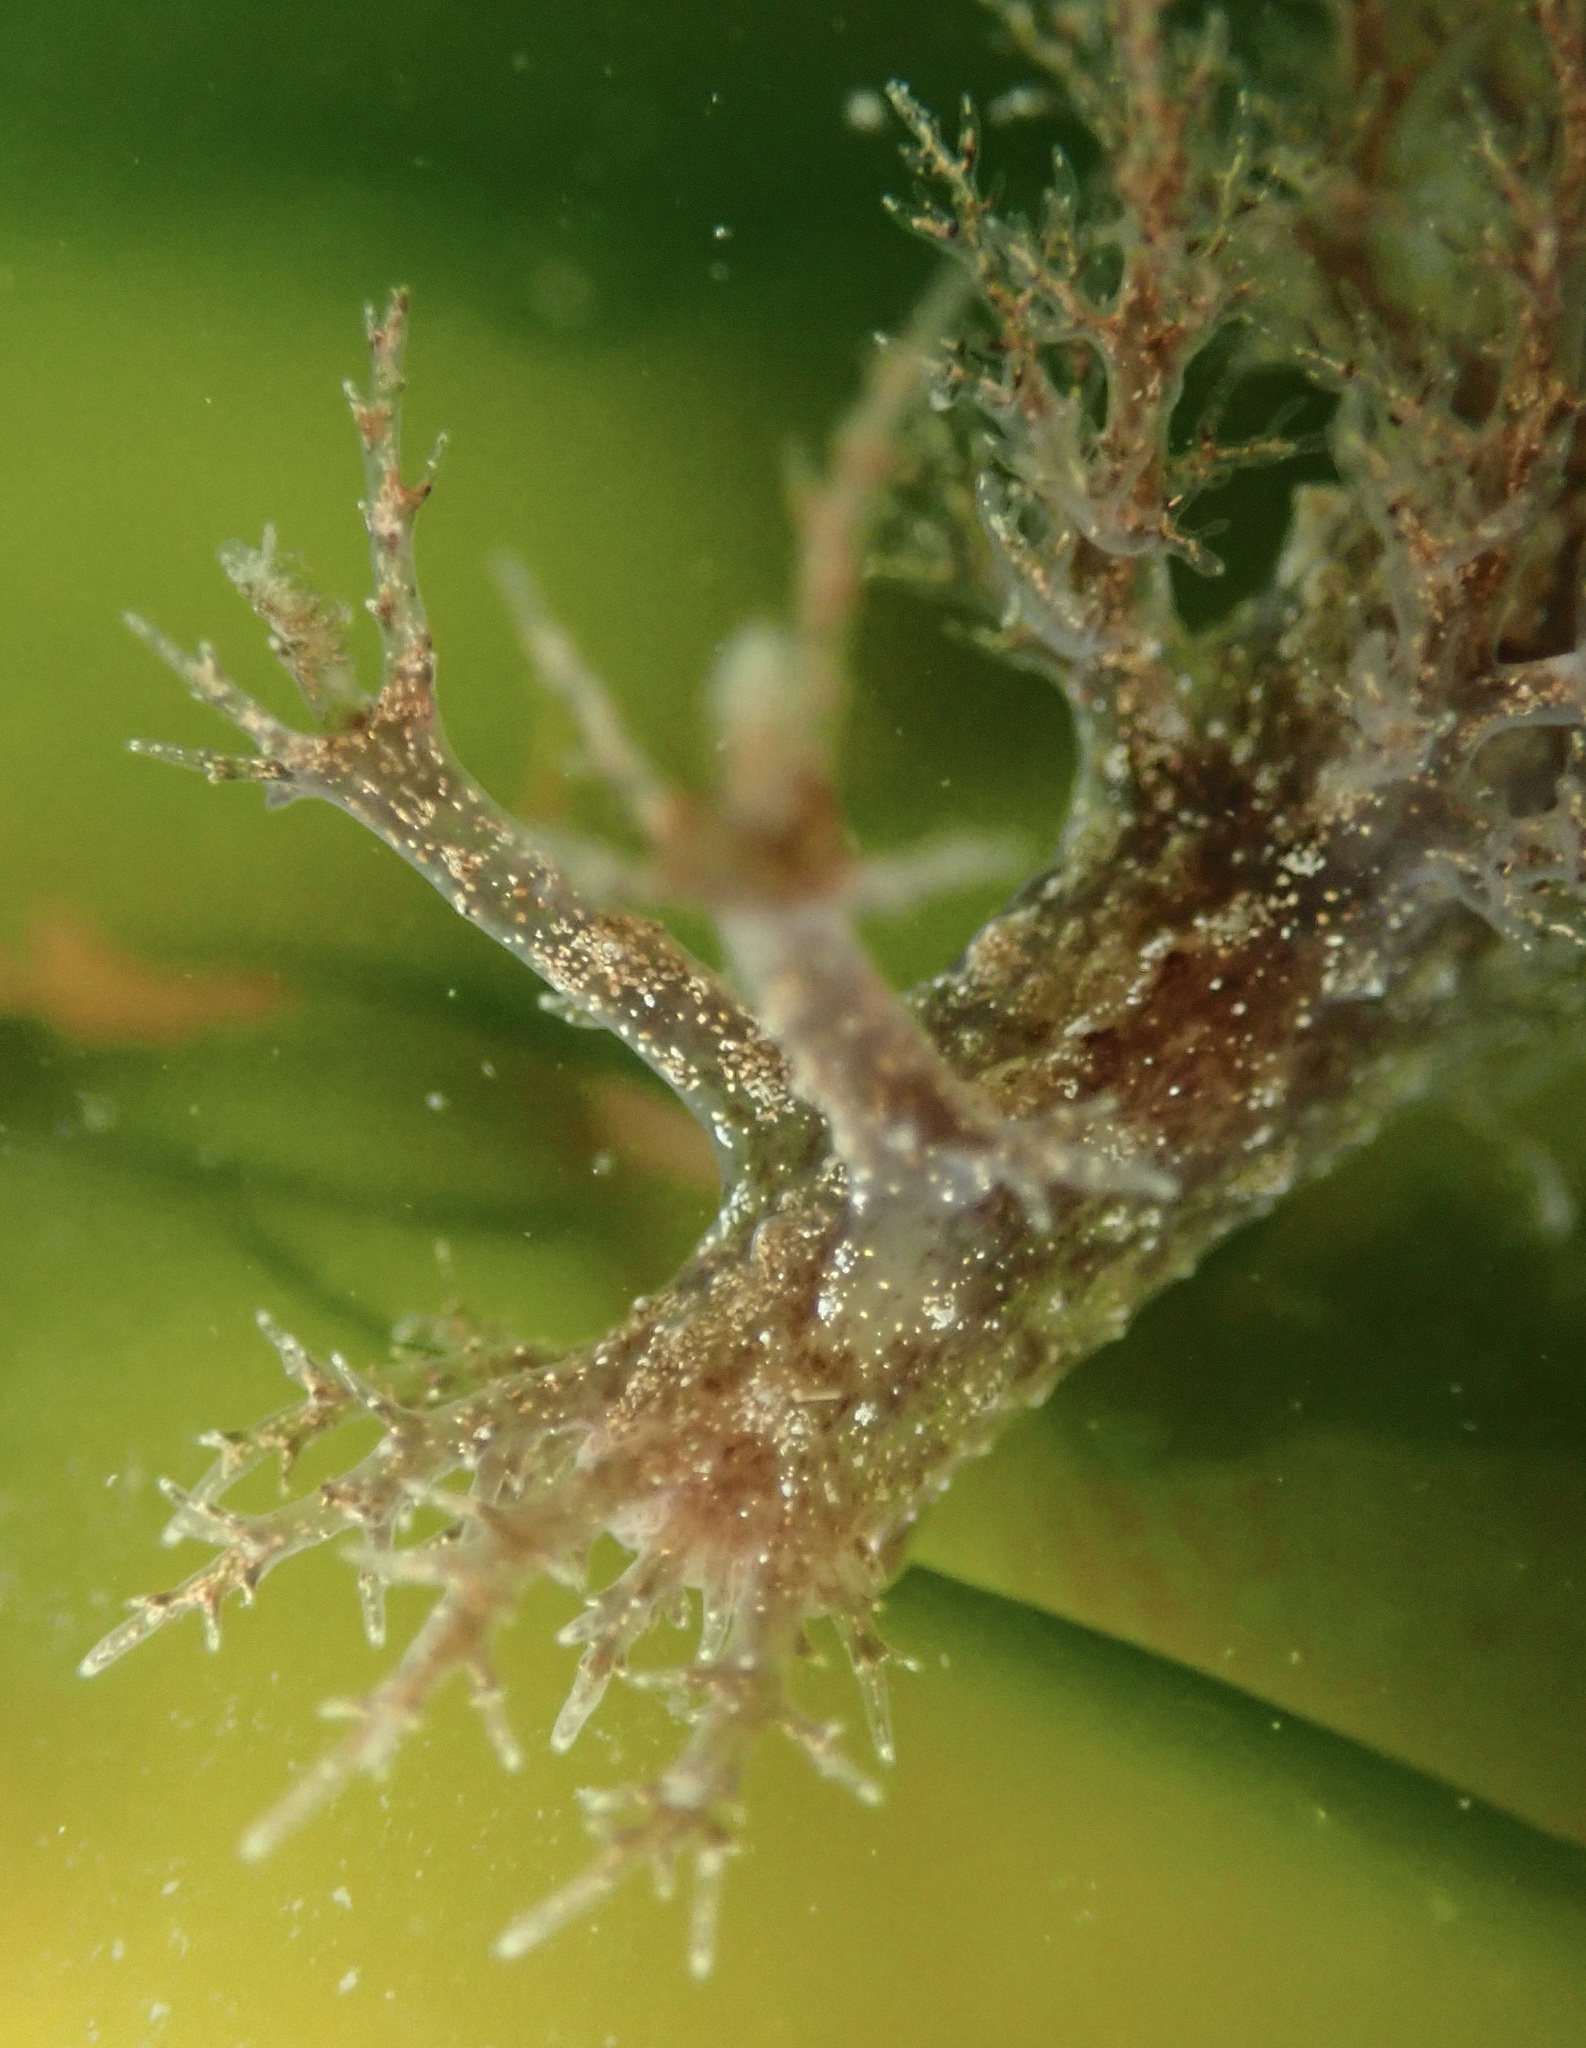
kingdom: Animalia
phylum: Mollusca
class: Gastropoda
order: Nudibranchia
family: Dendronotidae
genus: Dendronotus
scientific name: Dendronotus venustus
